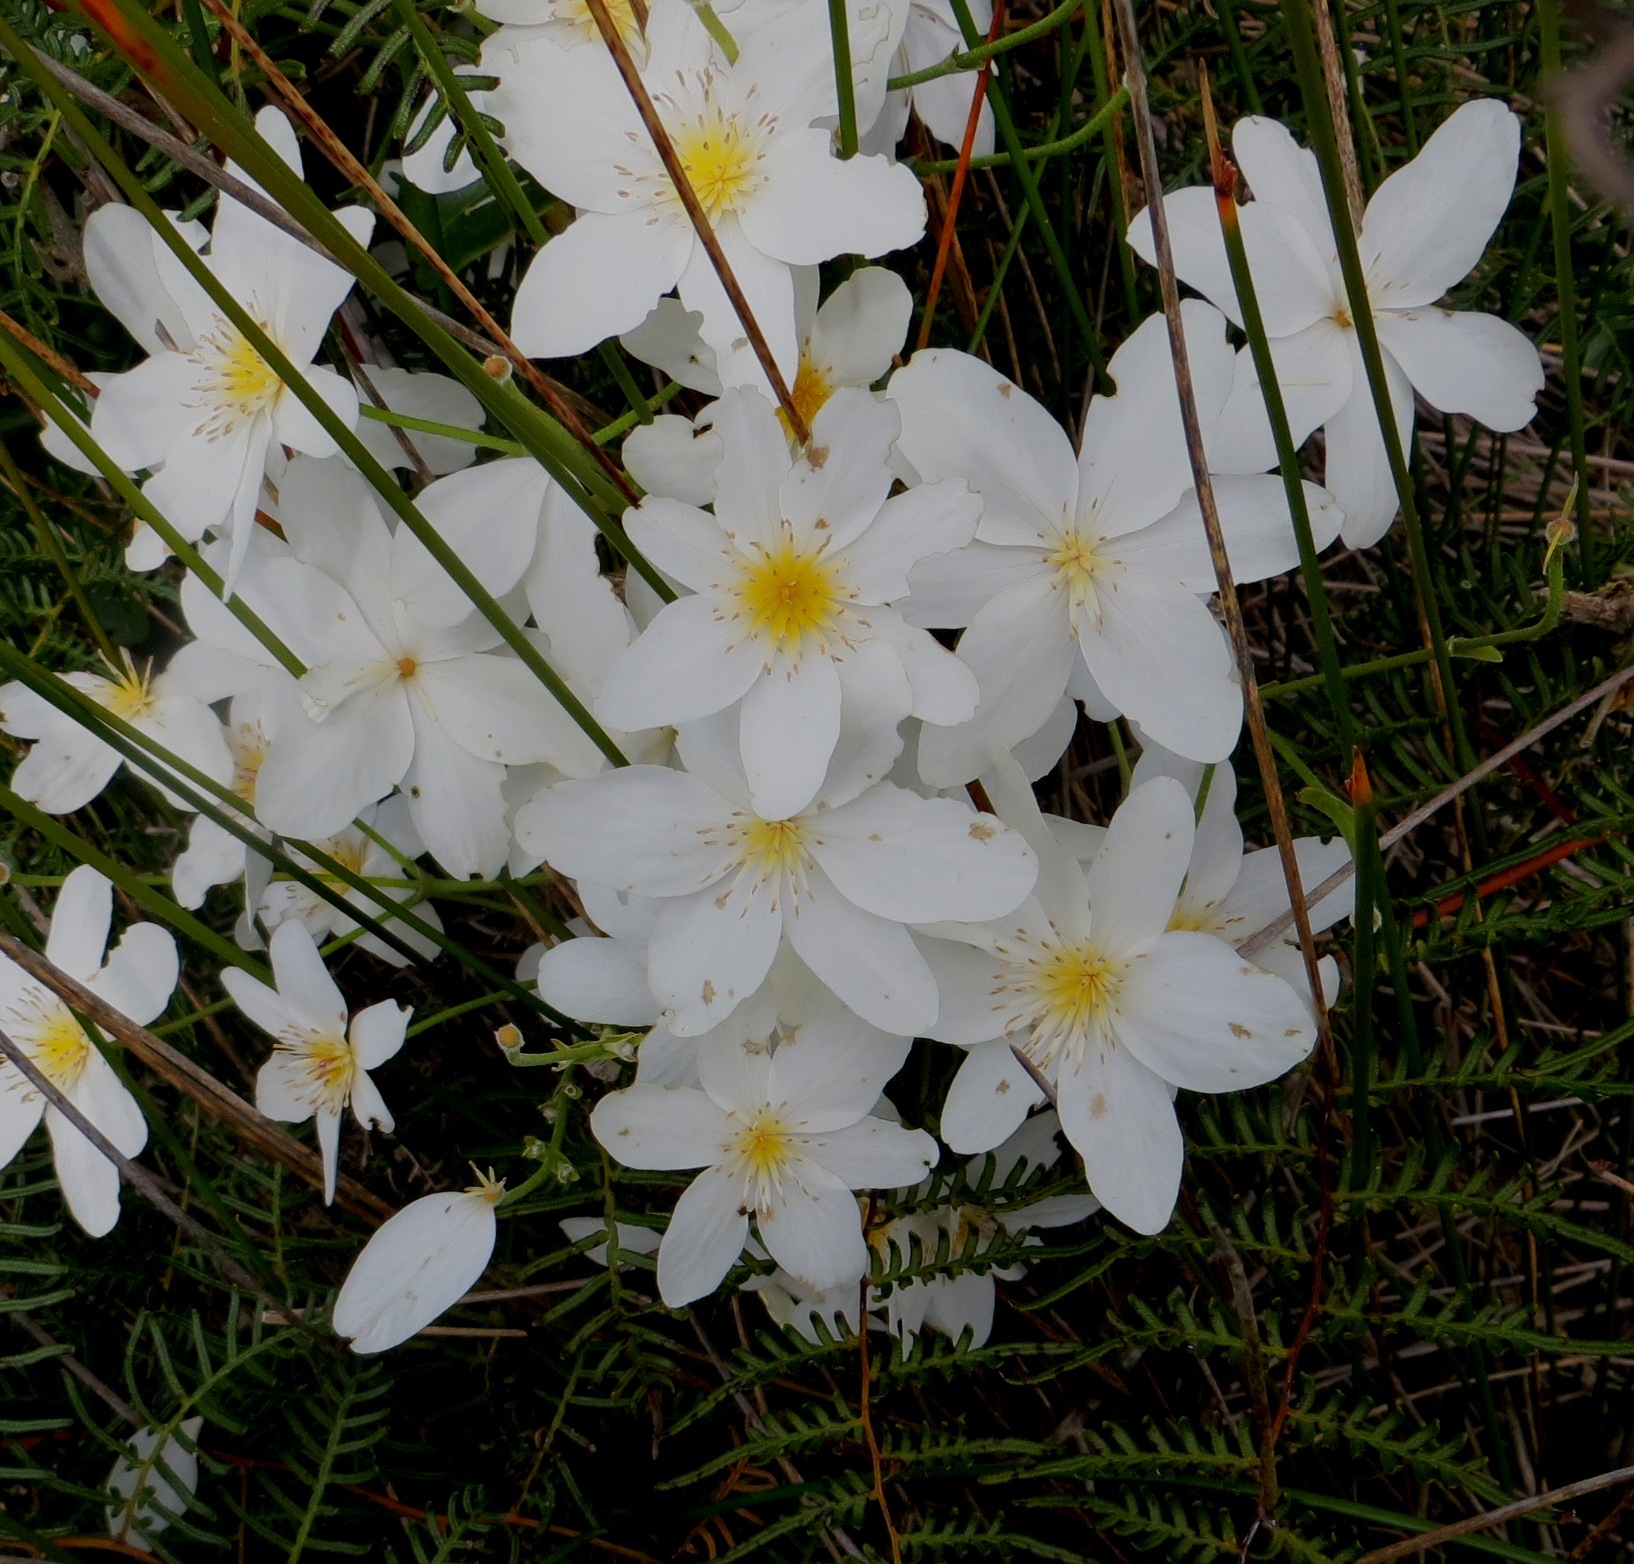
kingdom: Plantae
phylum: Tracheophyta
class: Magnoliopsida
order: Ranunculales
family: Ranunculaceae
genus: Clematis
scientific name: Clematis paniculata
